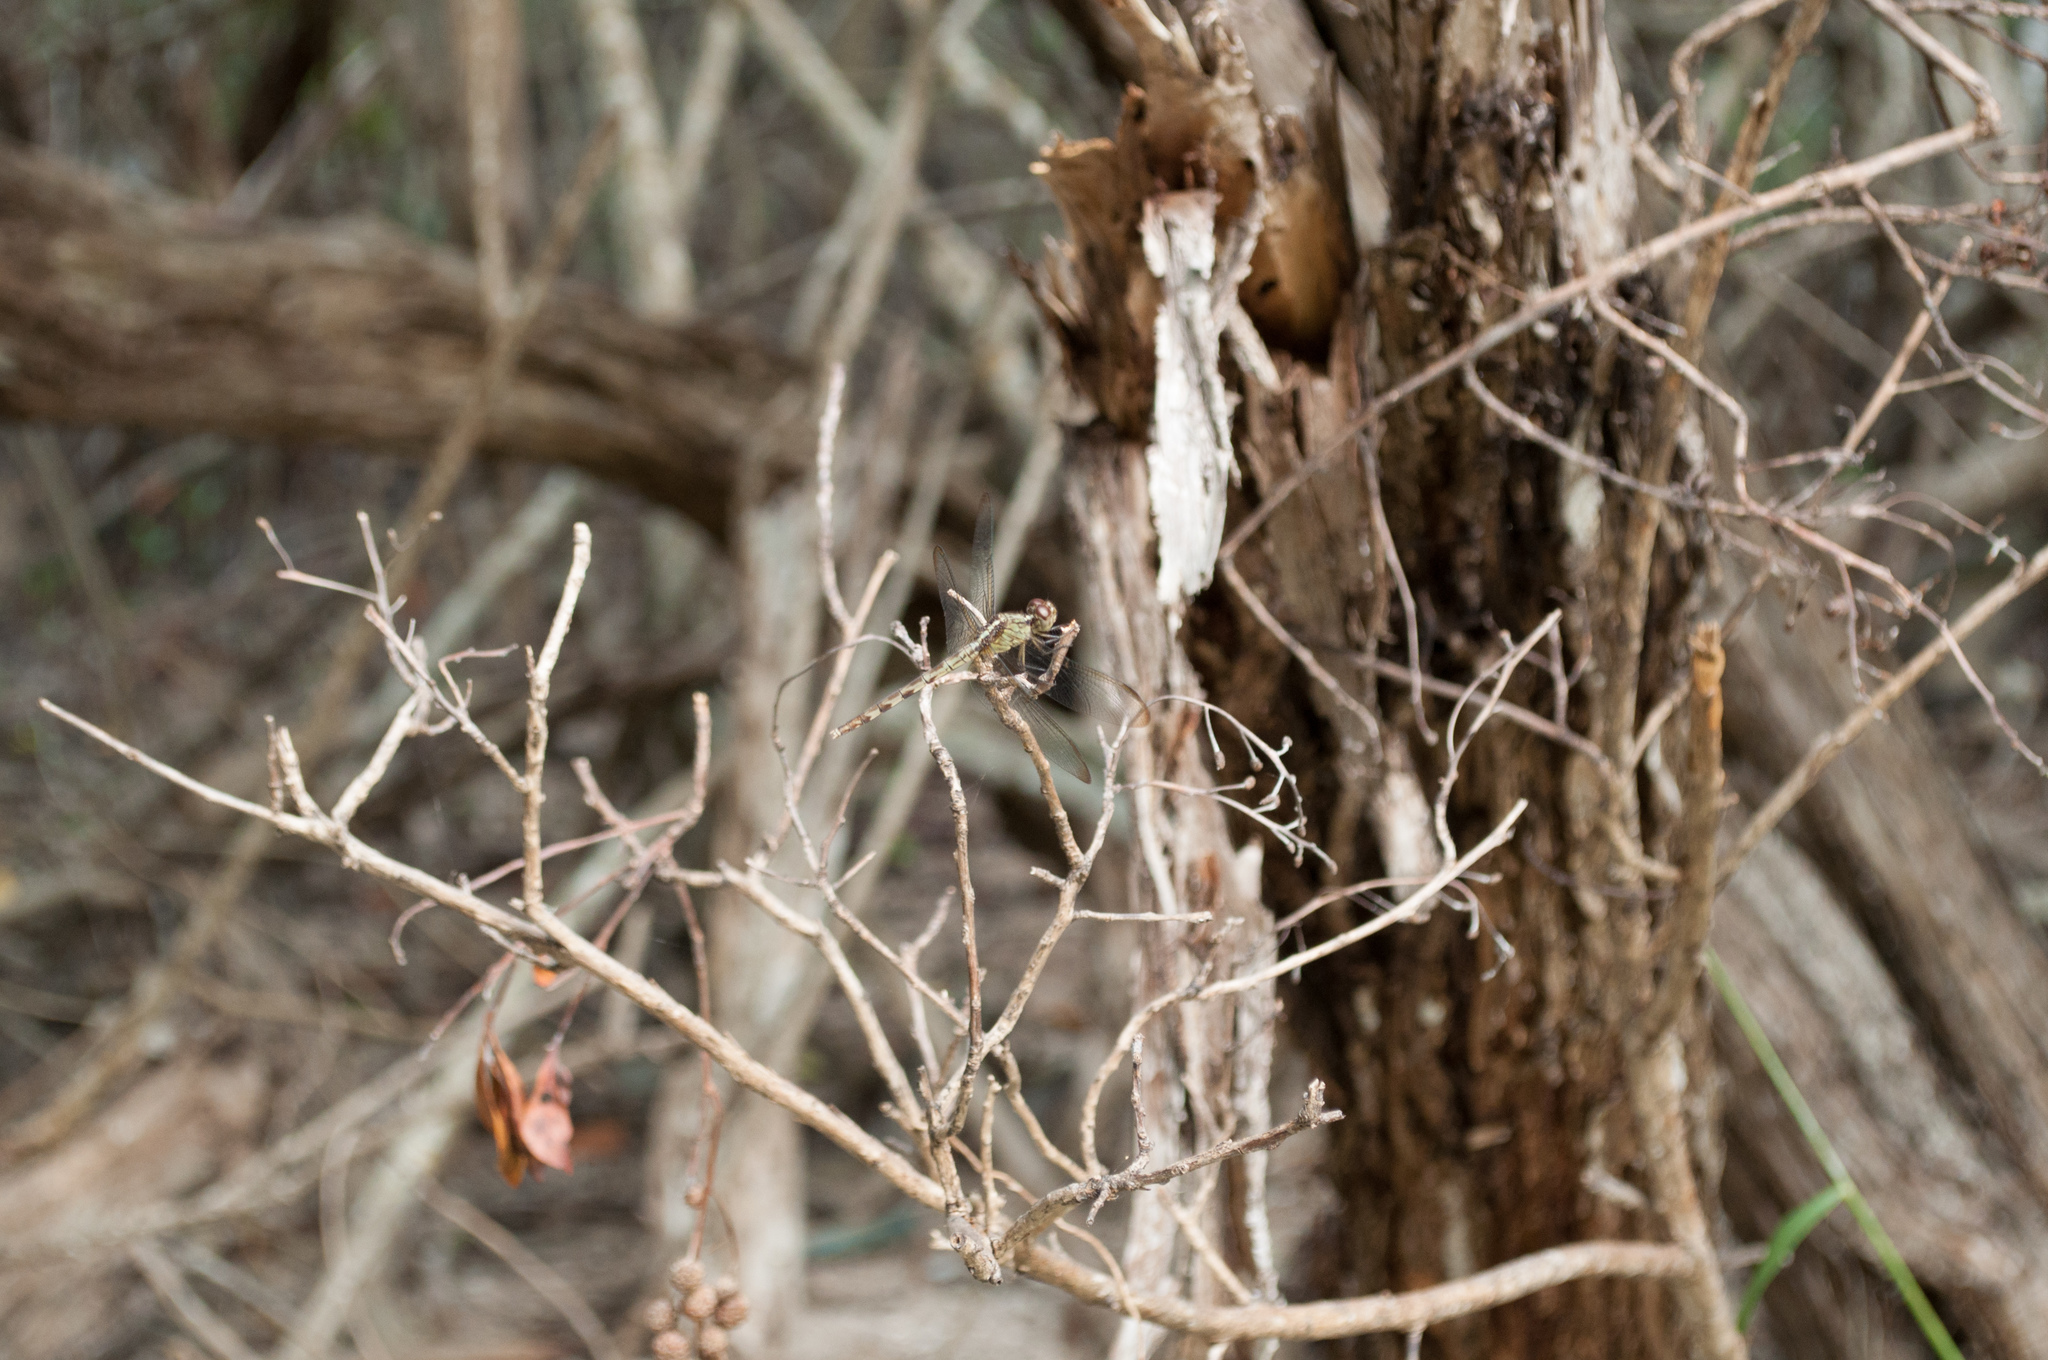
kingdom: Animalia
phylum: Arthropoda
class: Insecta
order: Odonata
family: Libellulidae
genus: Erythrodiplax
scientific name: Erythrodiplax umbrata
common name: Band-winged dragonlet
